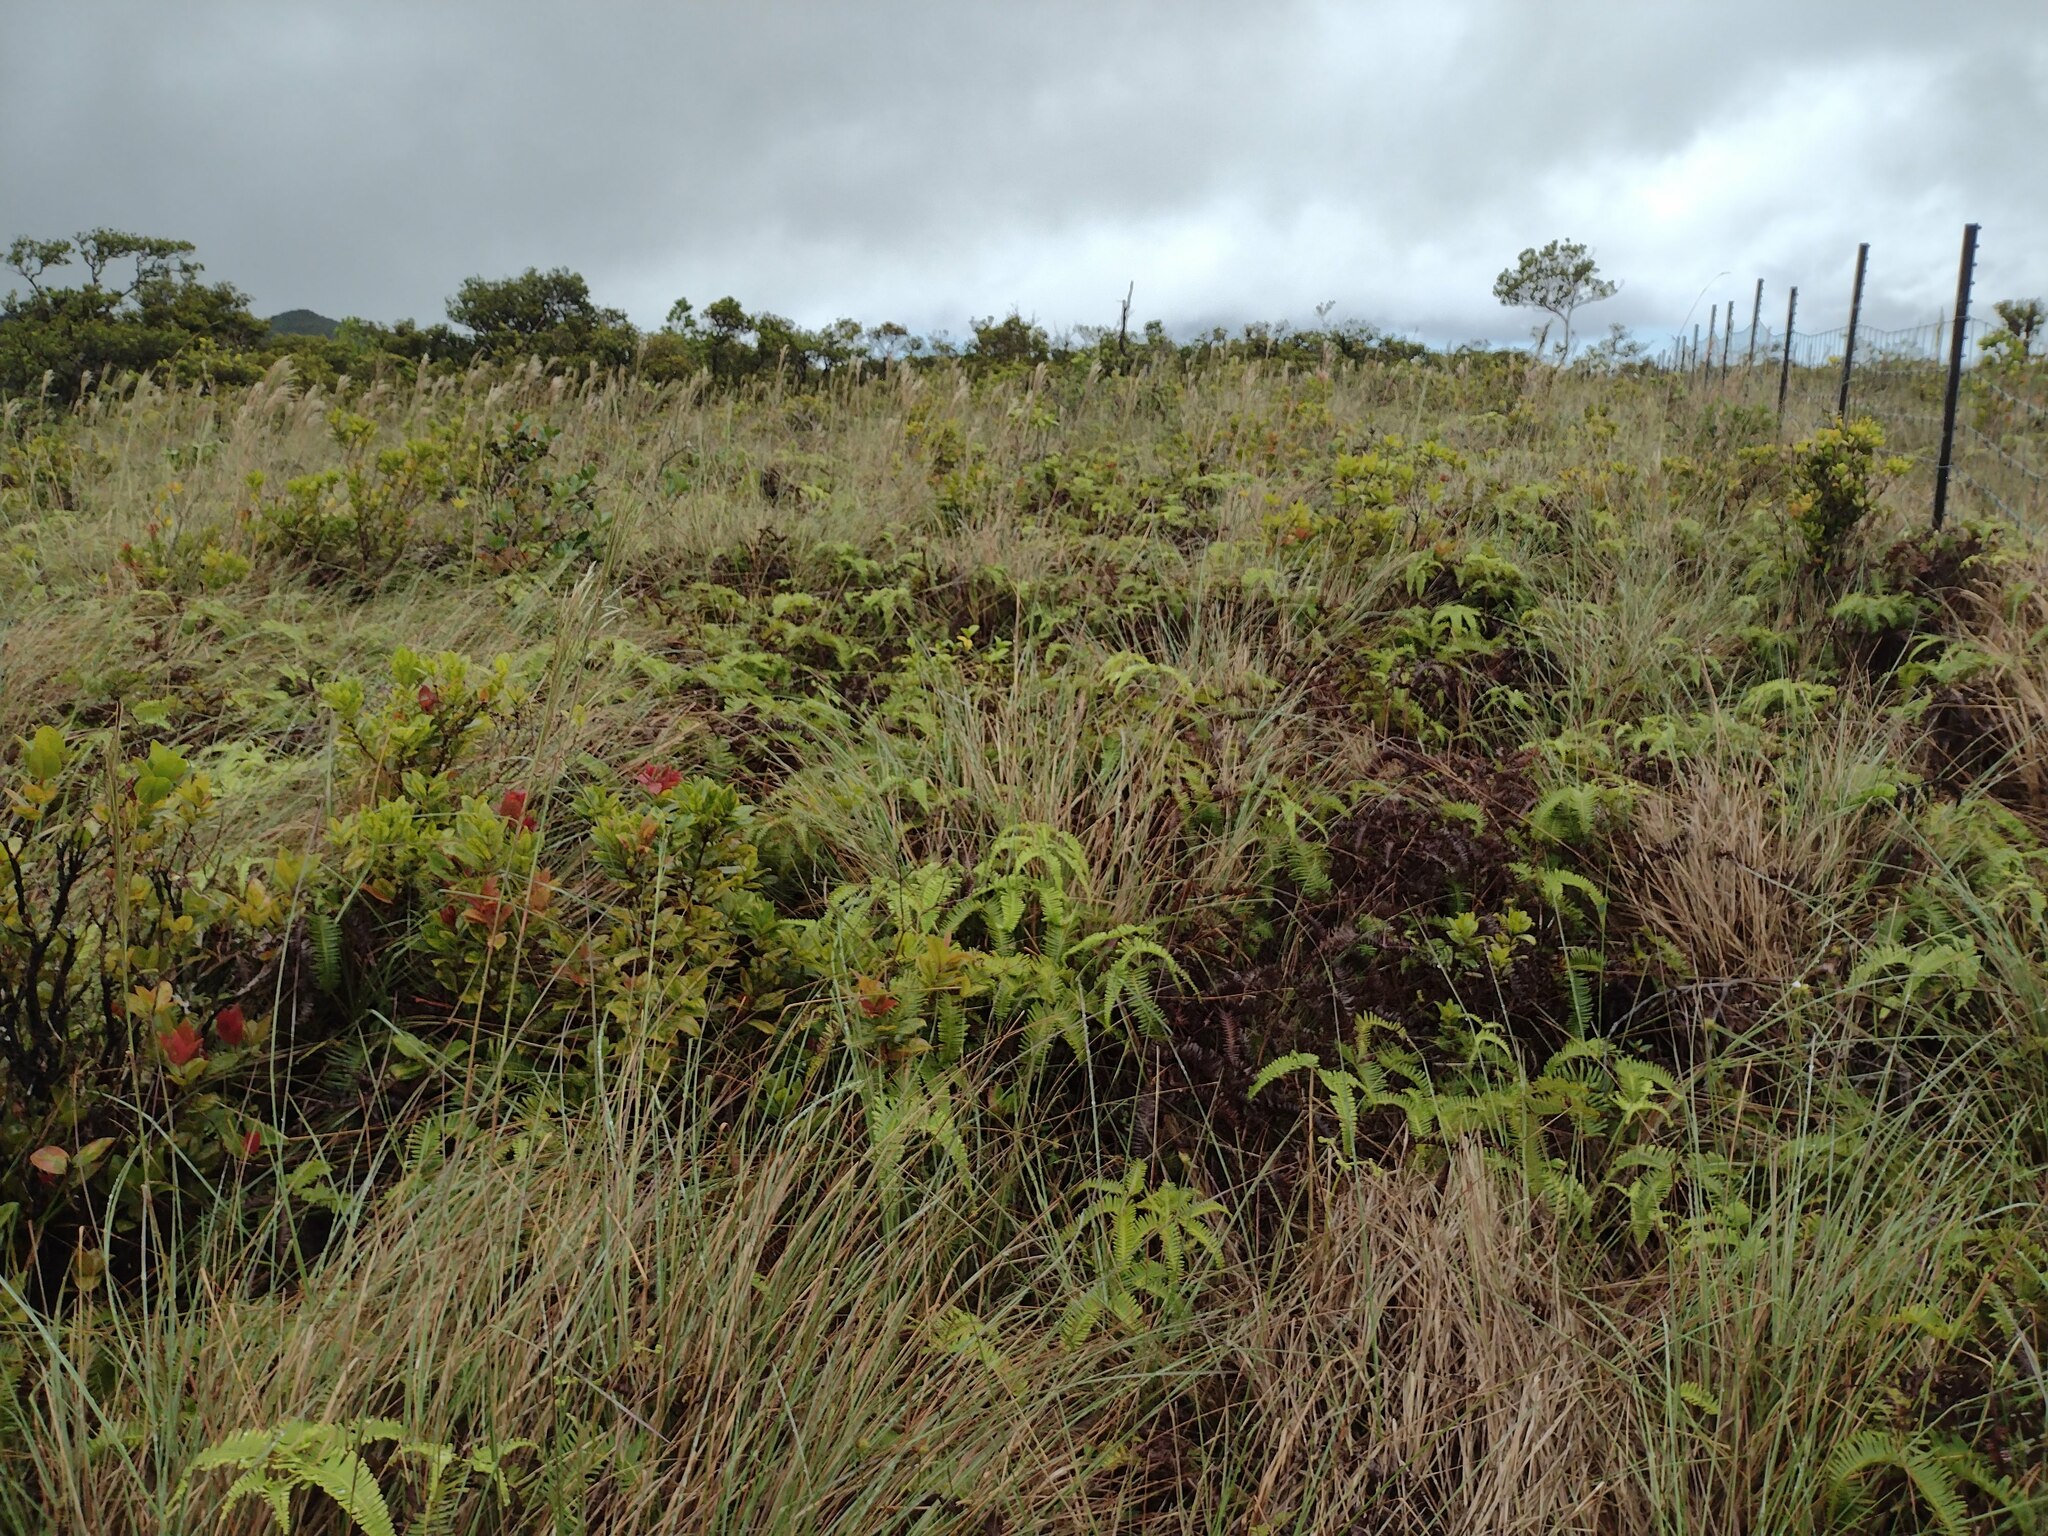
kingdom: Plantae
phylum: Tracheophyta
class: Liliopsida
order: Poales
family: Poaceae
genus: Andropogon
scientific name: Andropogon bicornis
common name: West indian foxtail grass
